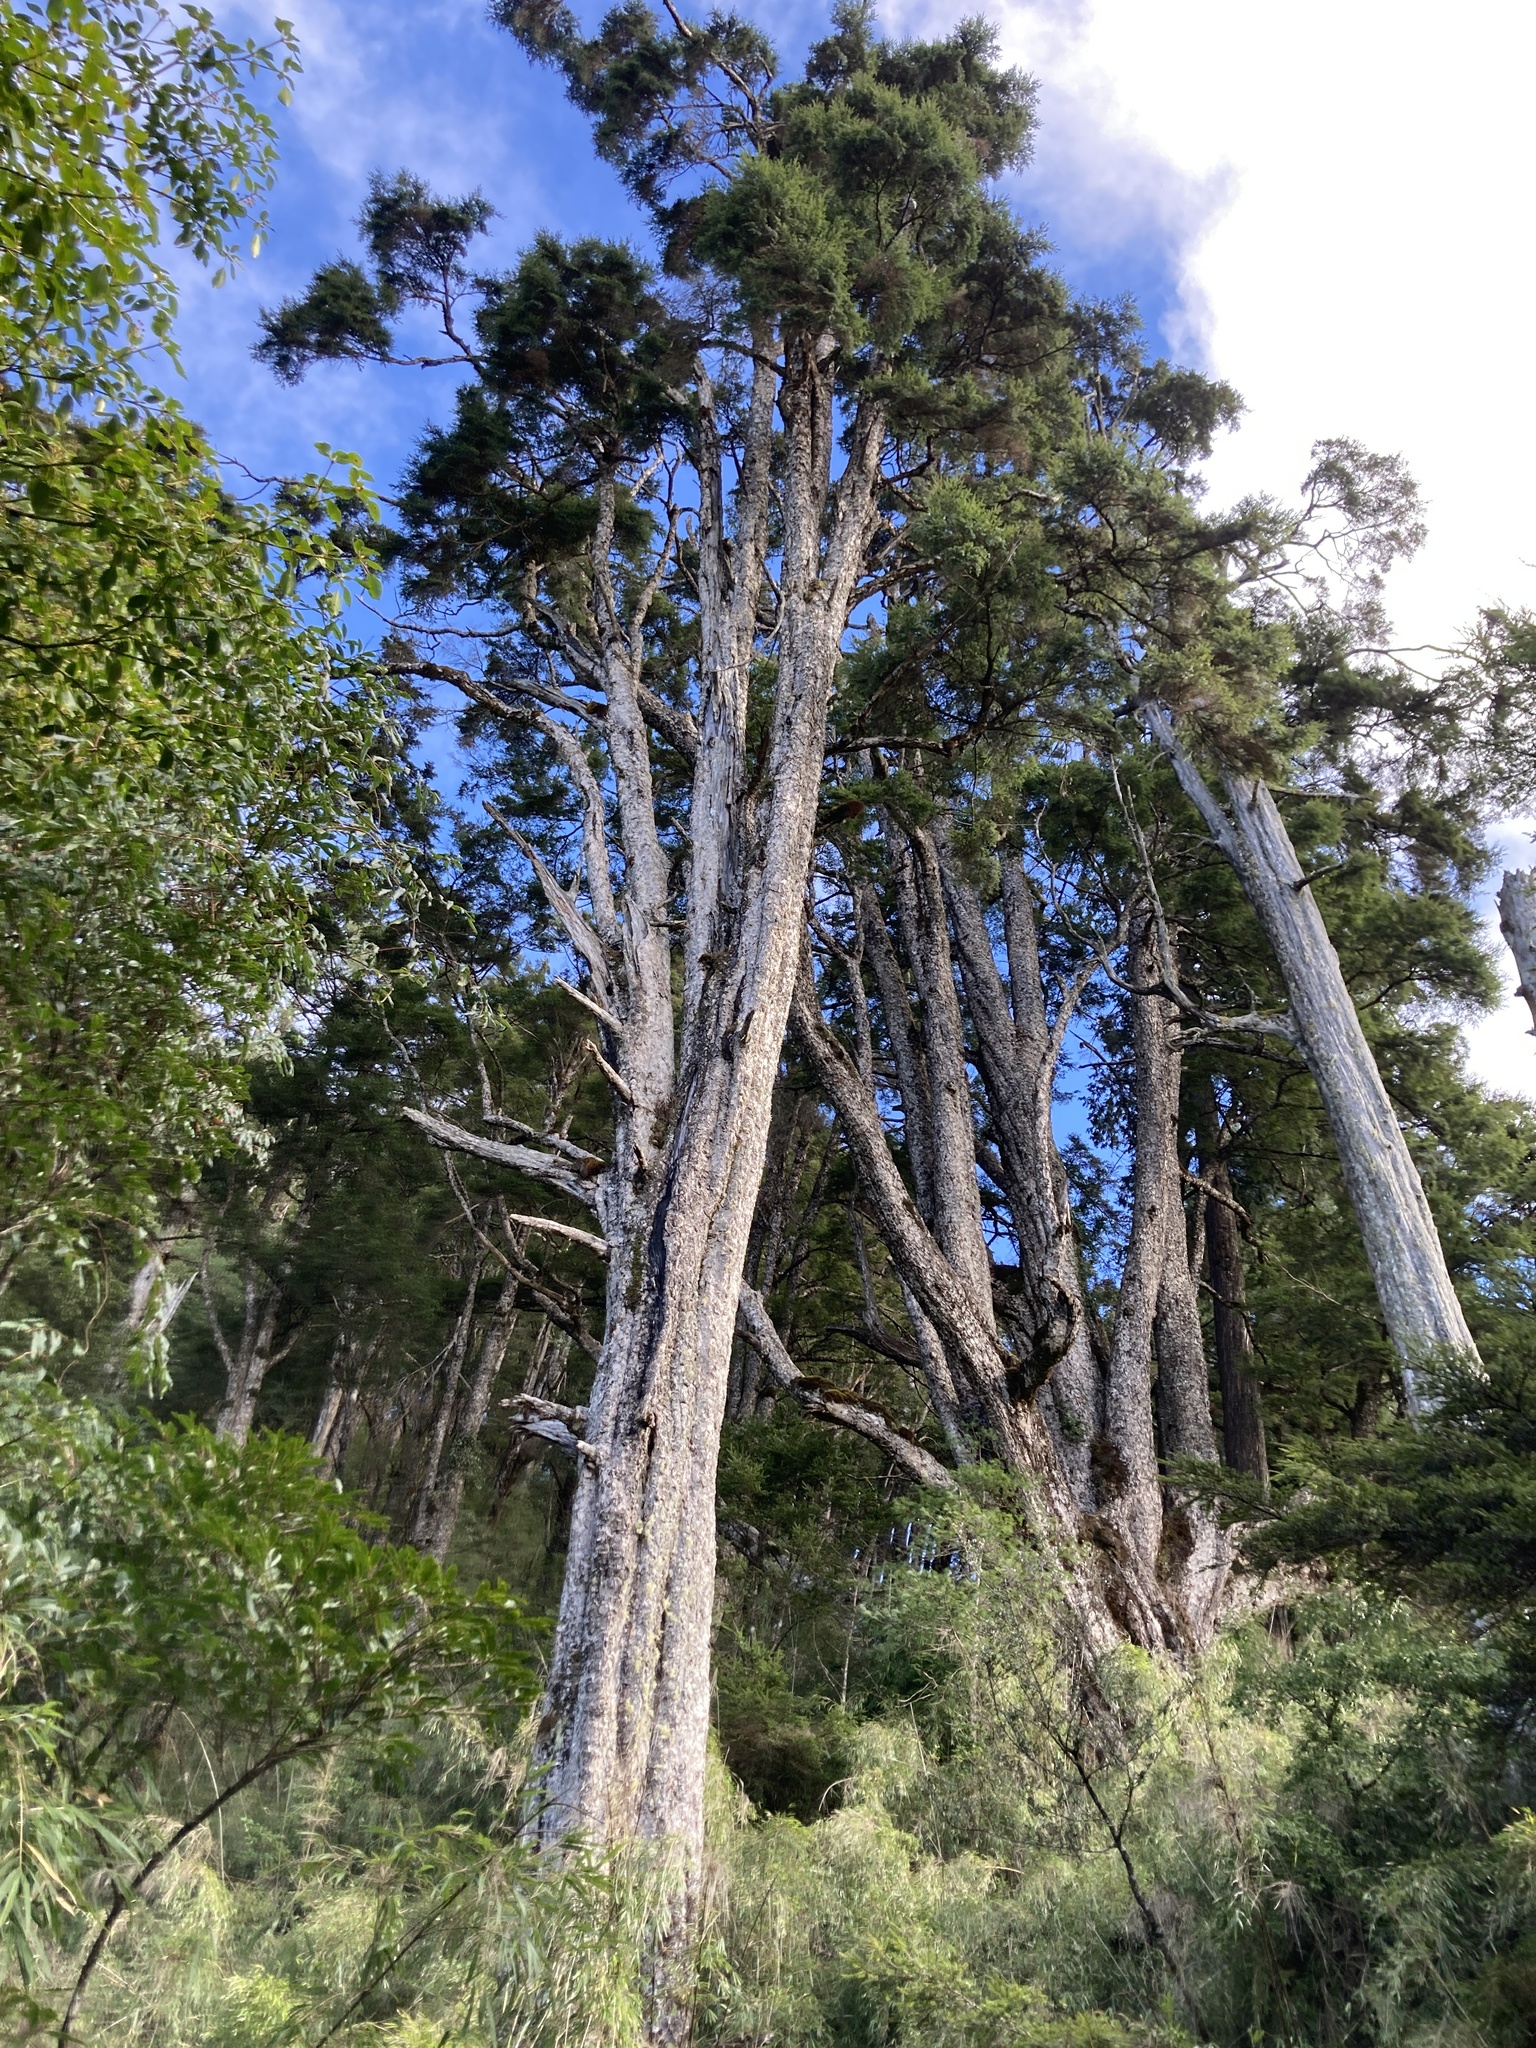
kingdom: Plantae
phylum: Tracheophyta
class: Pinopsida
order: Pinales
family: Pinaceae
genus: Tsuga
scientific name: Tsuga chinensis
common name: Chinese hemlock
